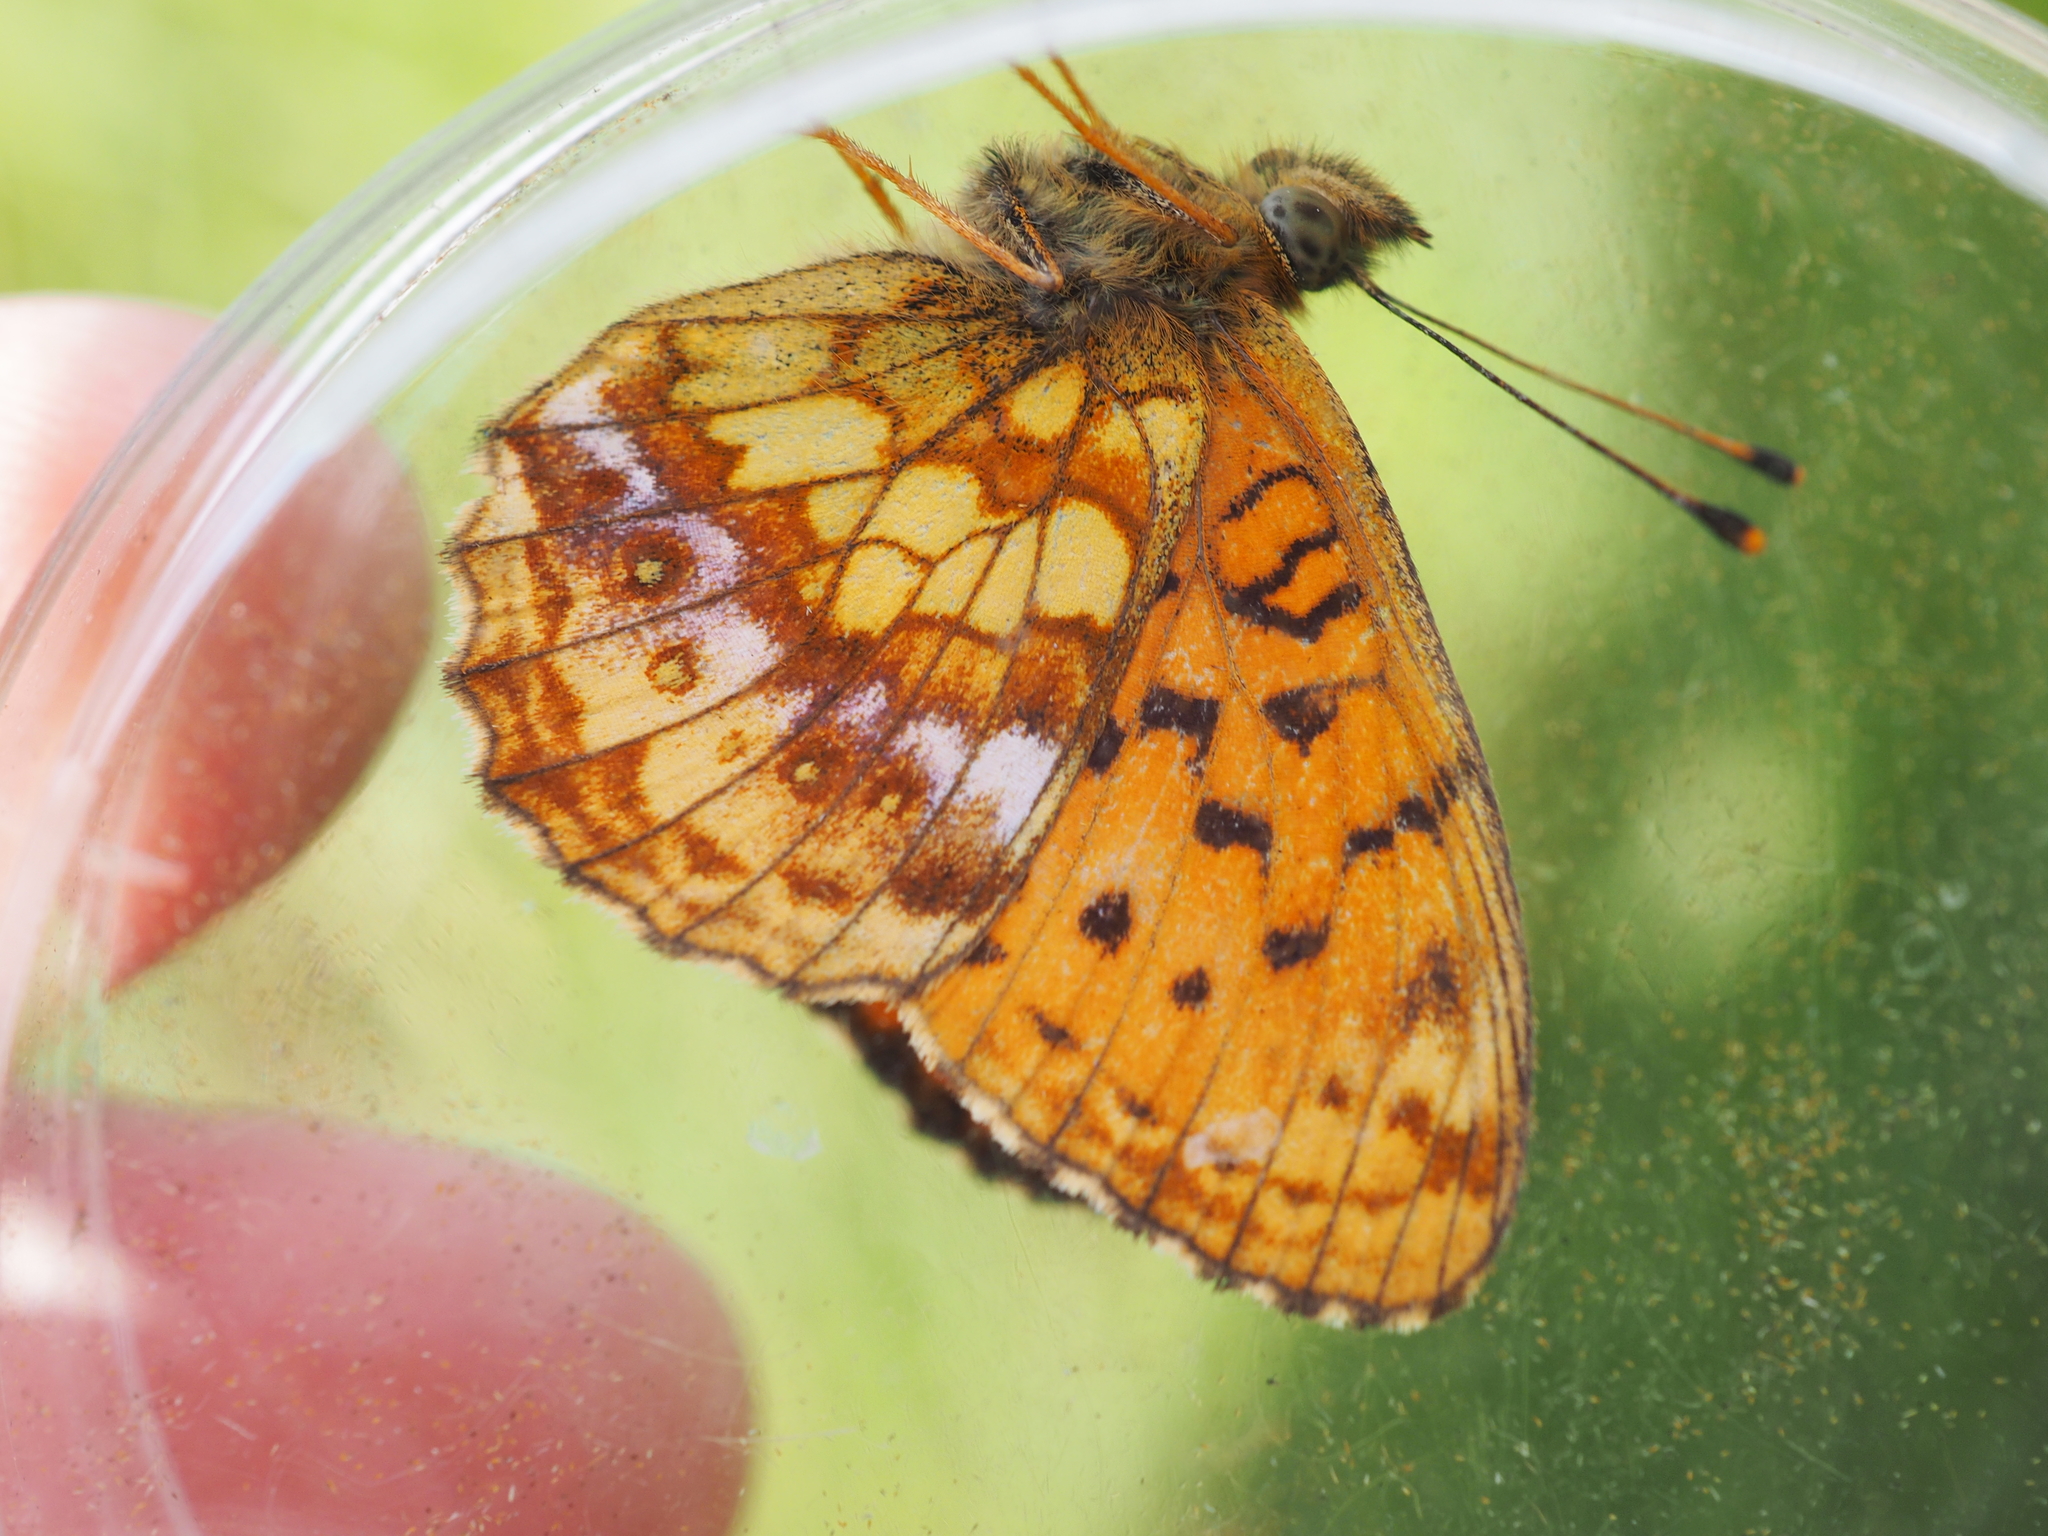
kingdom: Animalia
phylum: Arthropoda
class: Insecta
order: Lepidoptera
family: Nymphalidae
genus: Brenthis
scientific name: Brenthis ino
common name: Lesser marbled fritillary
